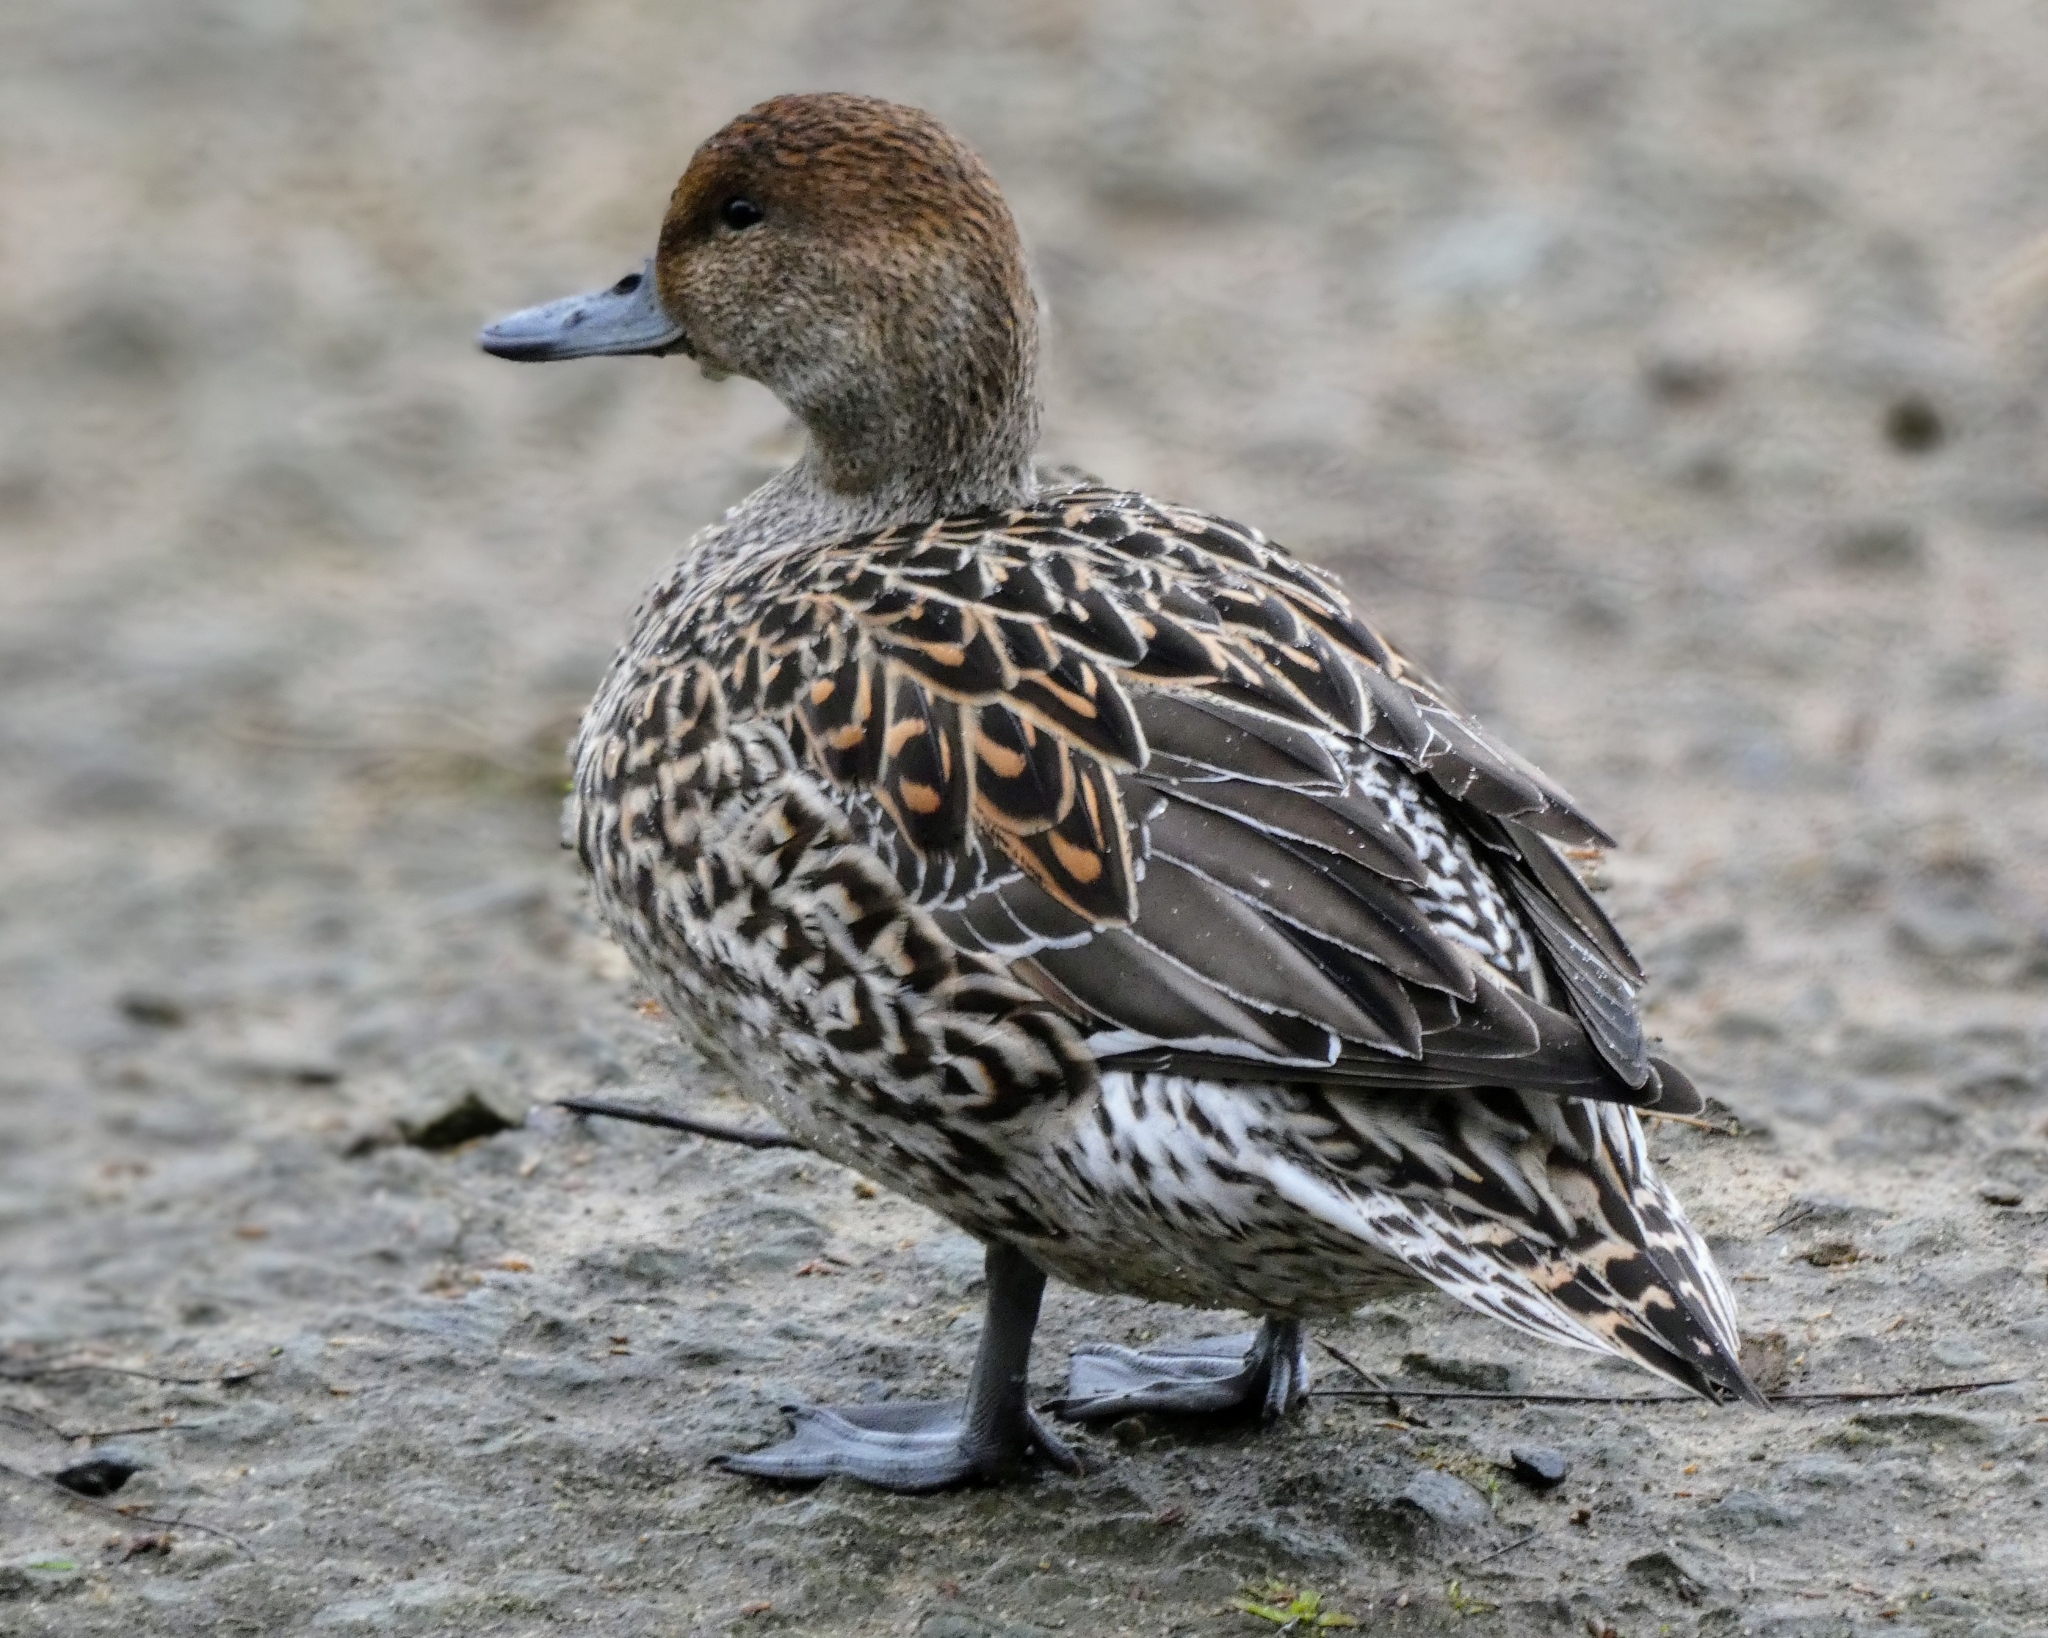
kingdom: Animalia
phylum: Chordata
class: Aves
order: Anseriformes
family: Anatidae
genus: Anas
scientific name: Anas acuta
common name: Northern pintail
